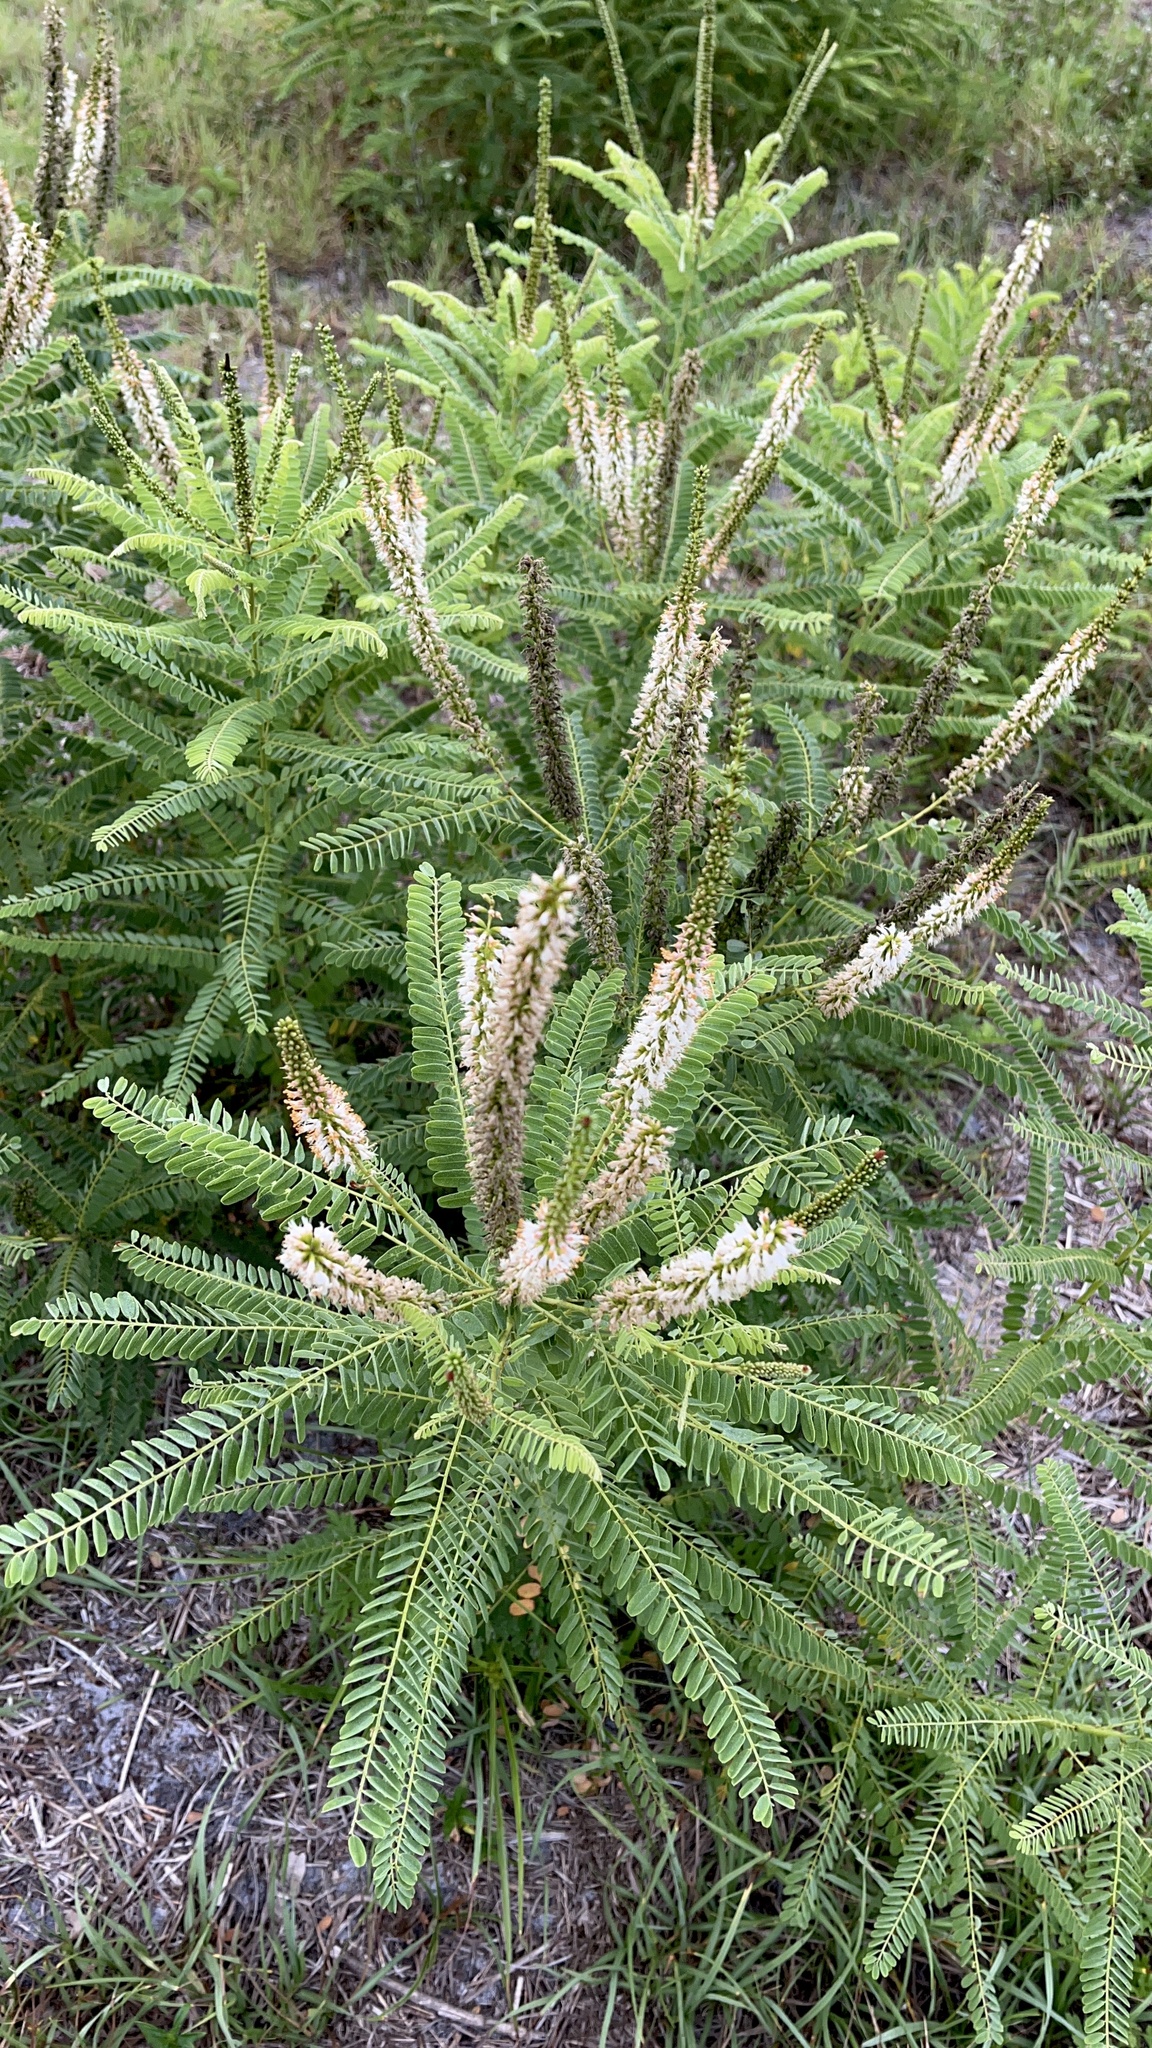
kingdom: Plantae
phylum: Tracheophyta
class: Magnoliopsida
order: Fabales
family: Fabaceae
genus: Amorpha
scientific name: Amorpha herbacea
